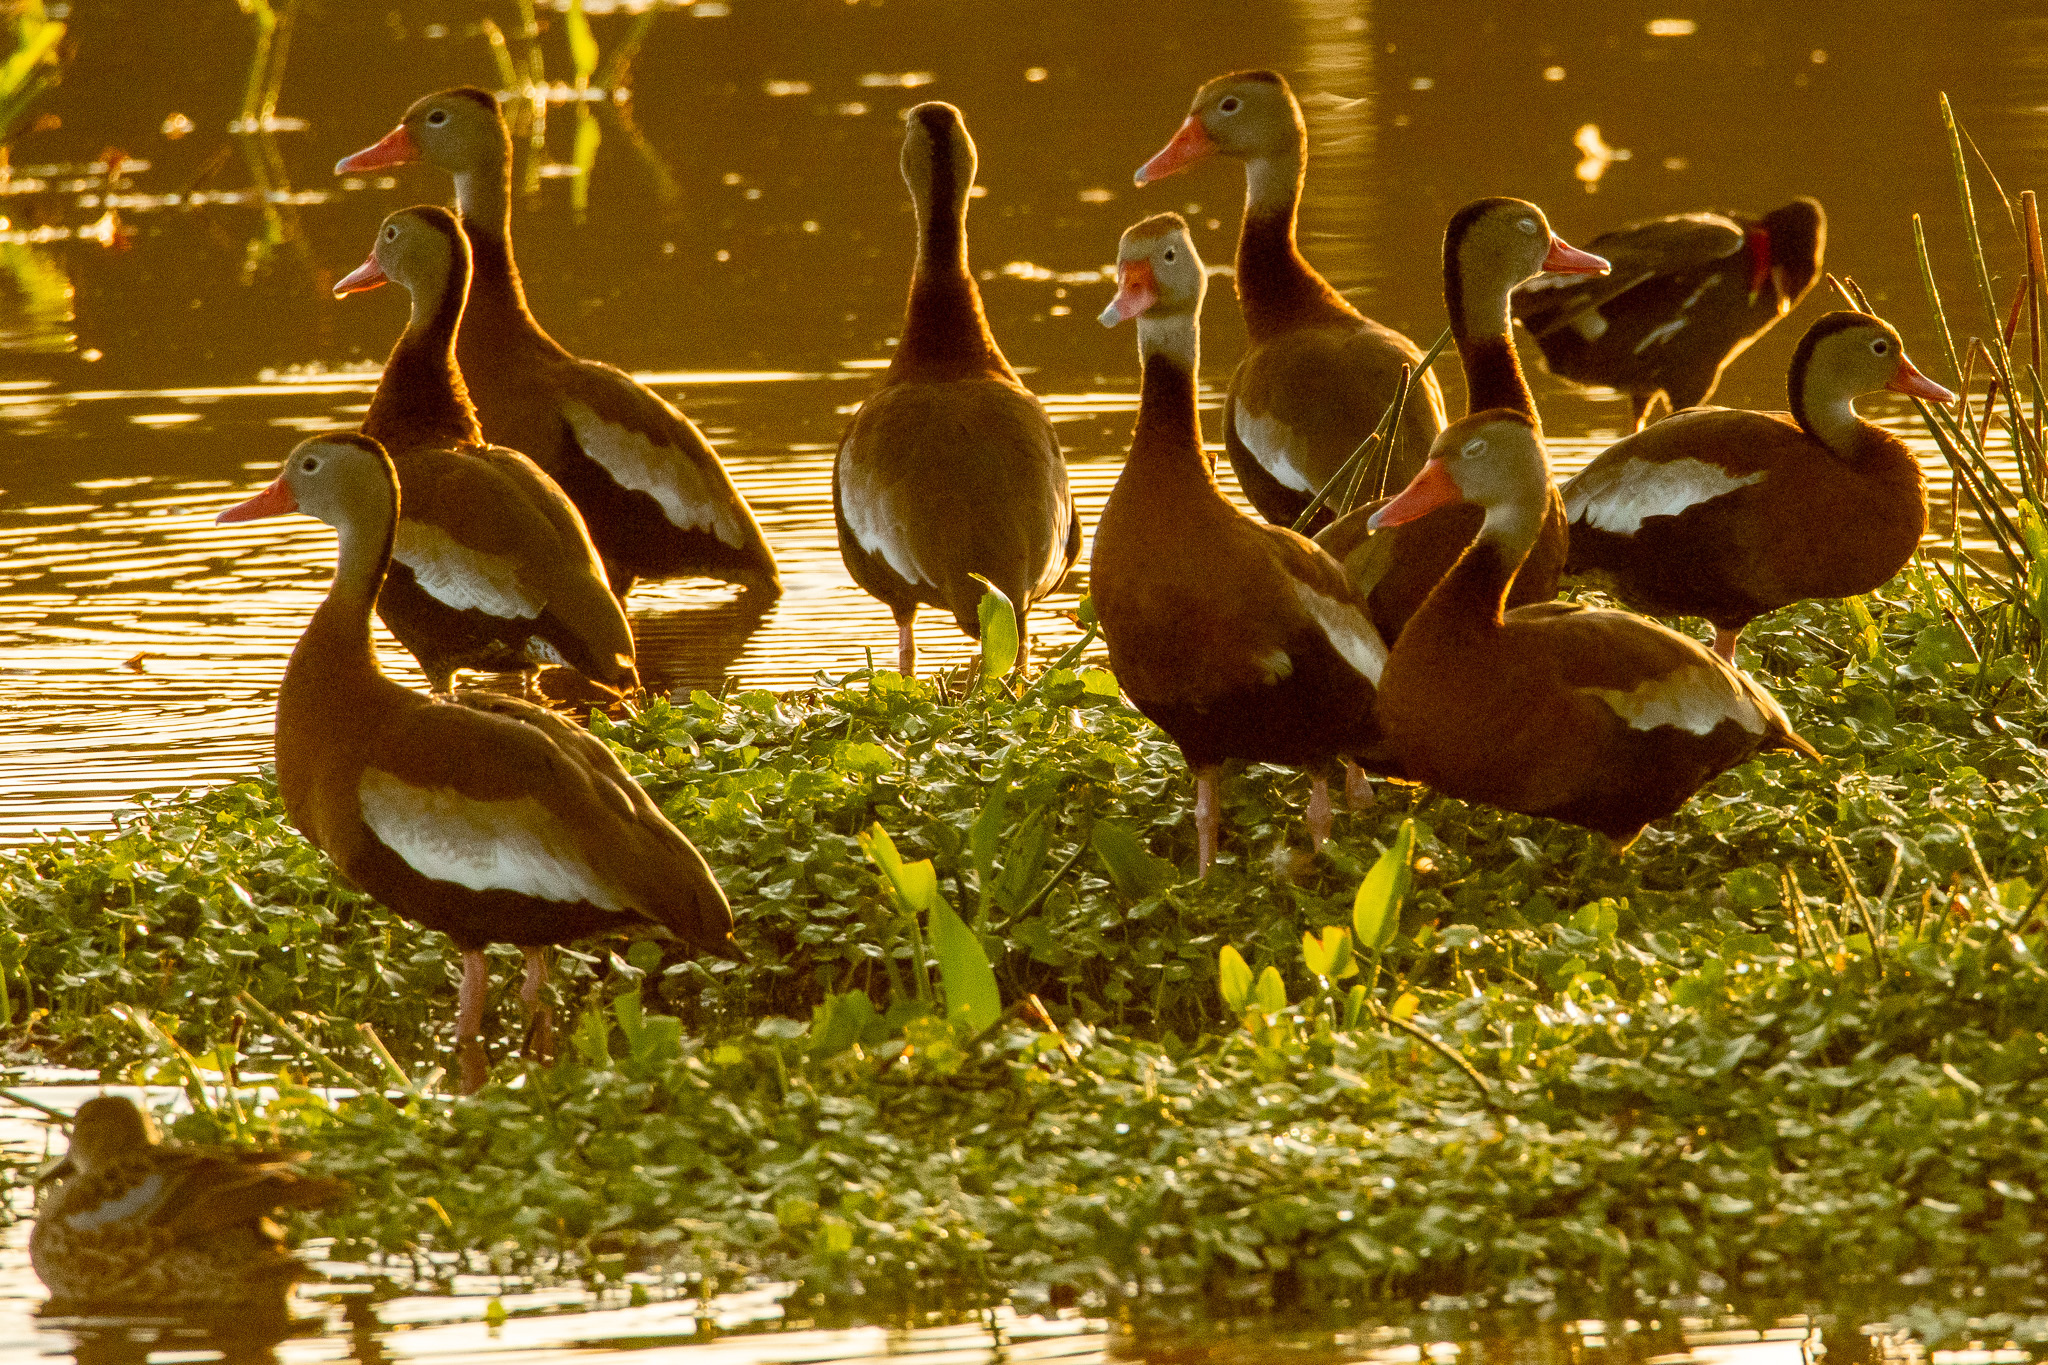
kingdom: Animalia
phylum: Chordata
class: Aves
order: Anseriformes
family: Anatidae
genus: Dendrocygna
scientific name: Dendrocygna autumnalis
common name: Black-bellied whistling duck
